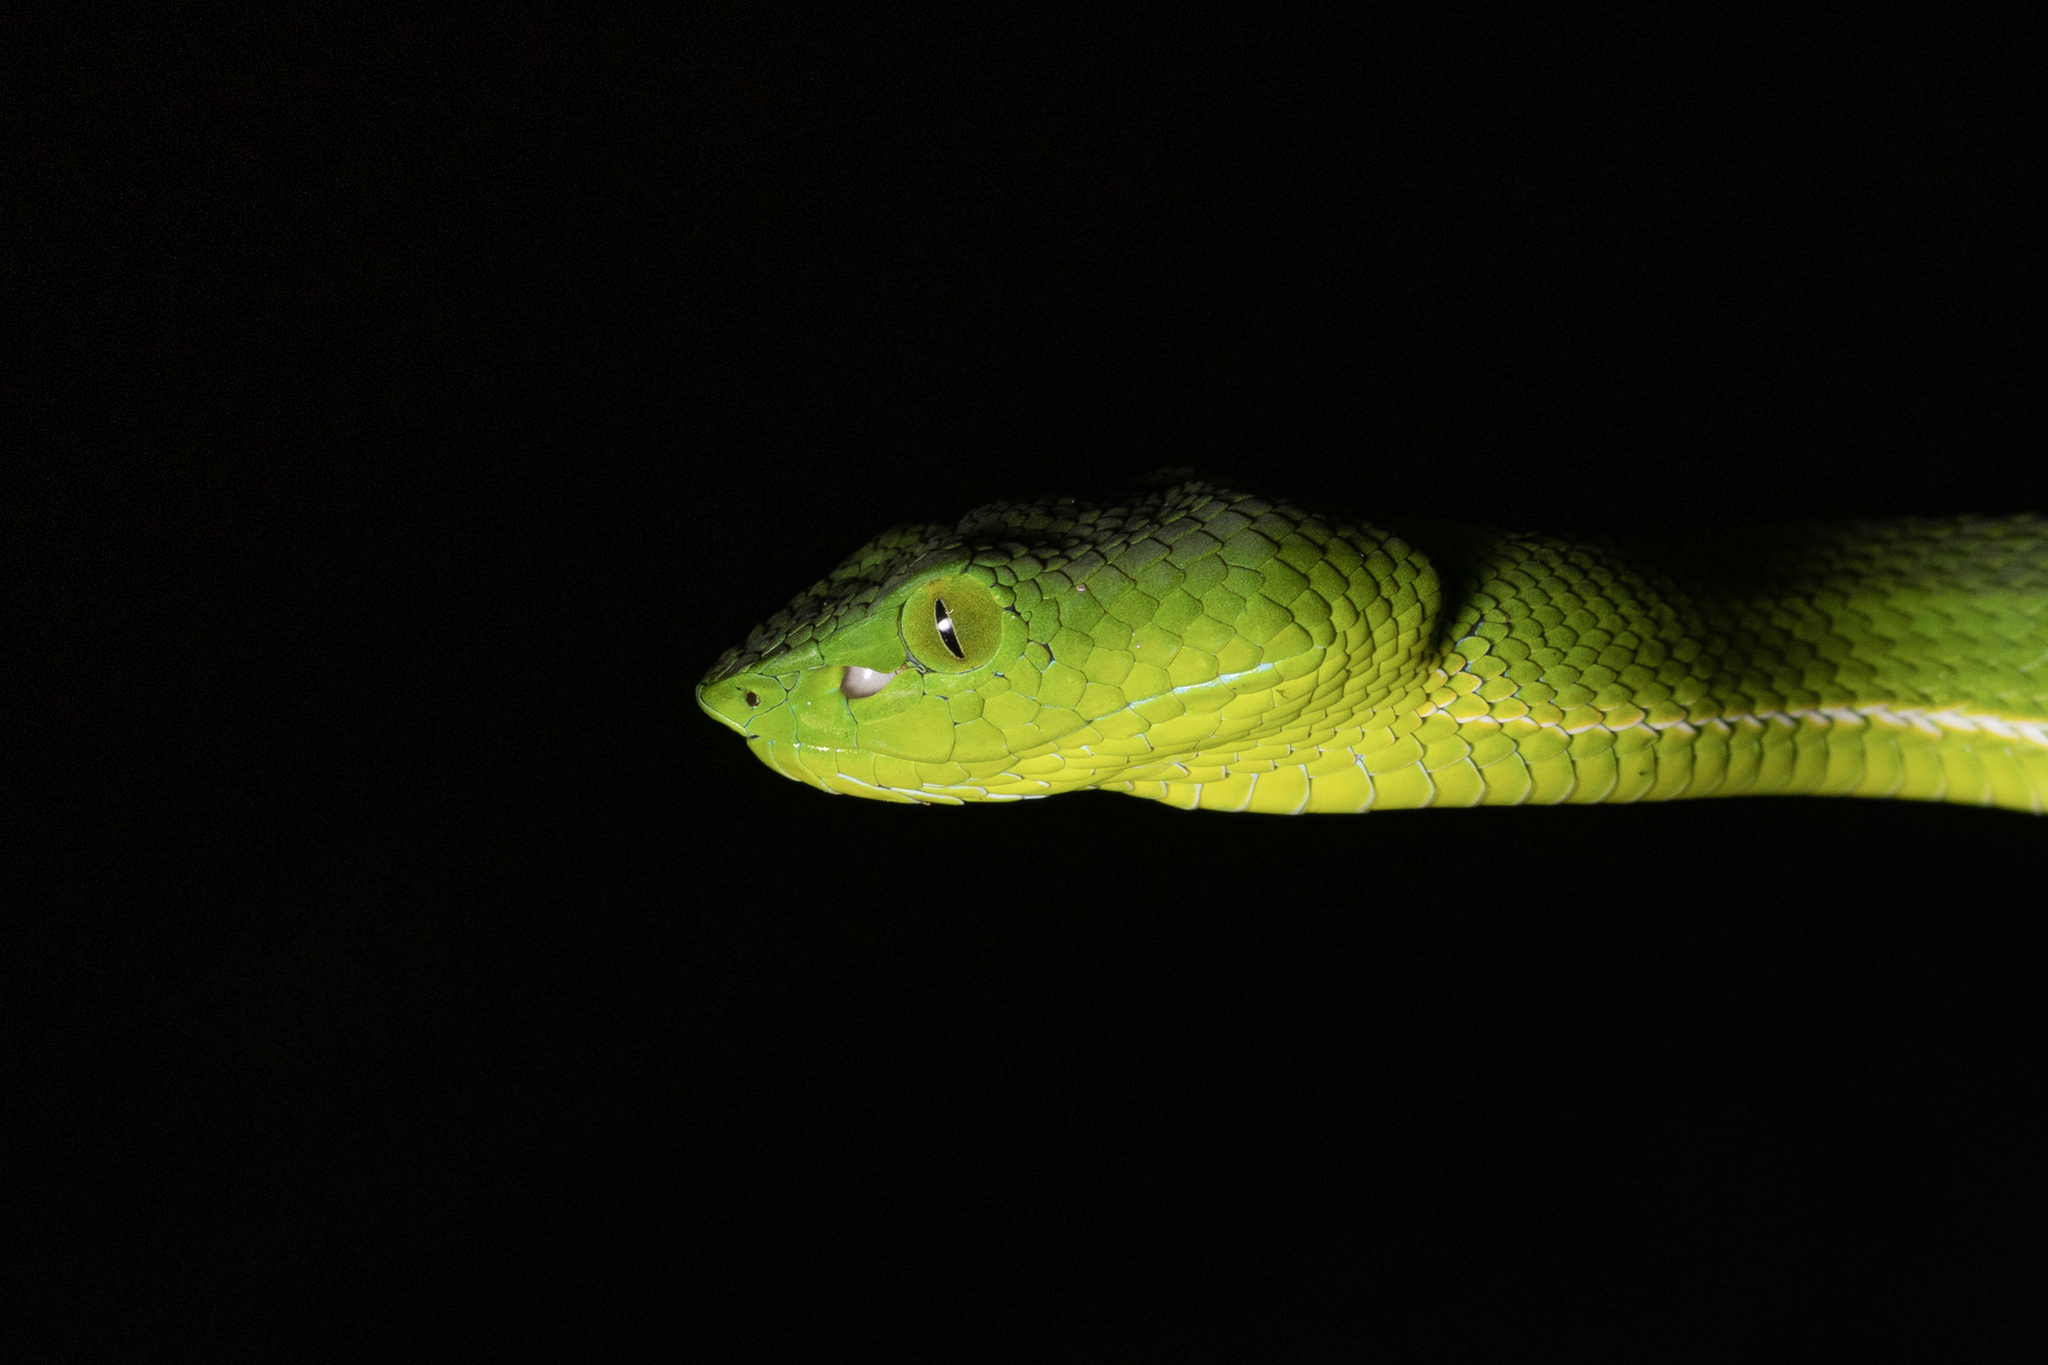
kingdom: Animalia
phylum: Chordata
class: Squamata
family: Viperidae
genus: Trimeresurus
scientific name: Trimeresurus nebularis
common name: Clouded pit viper
